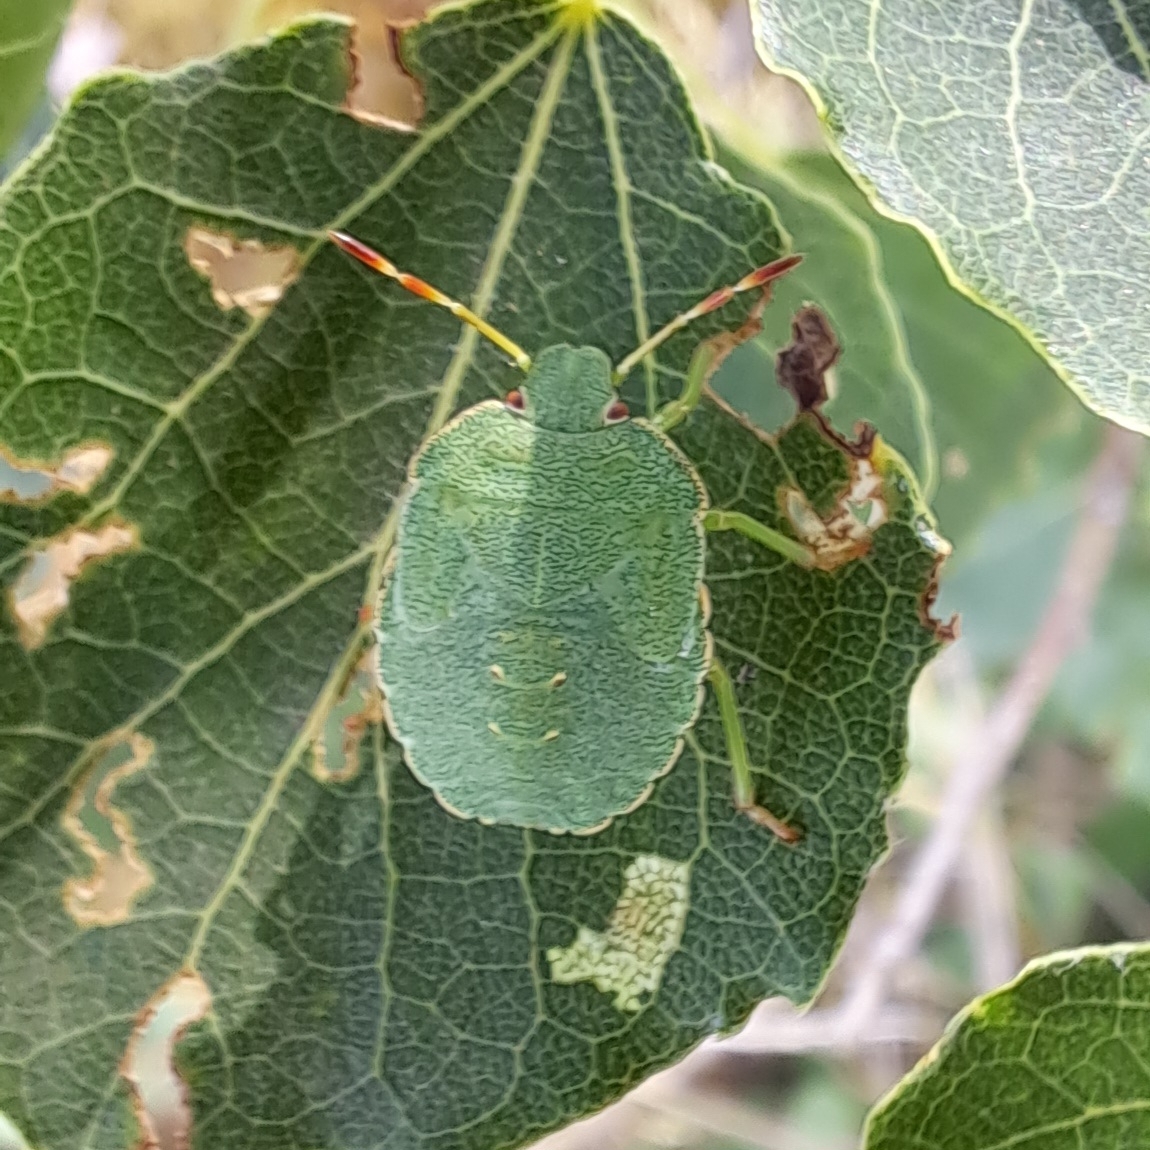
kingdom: Animalia
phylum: Arthropoda
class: Insecta
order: Hemiptera
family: Pentatomidae
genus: Palomena
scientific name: Palomena prasina
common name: Green shieldbug
